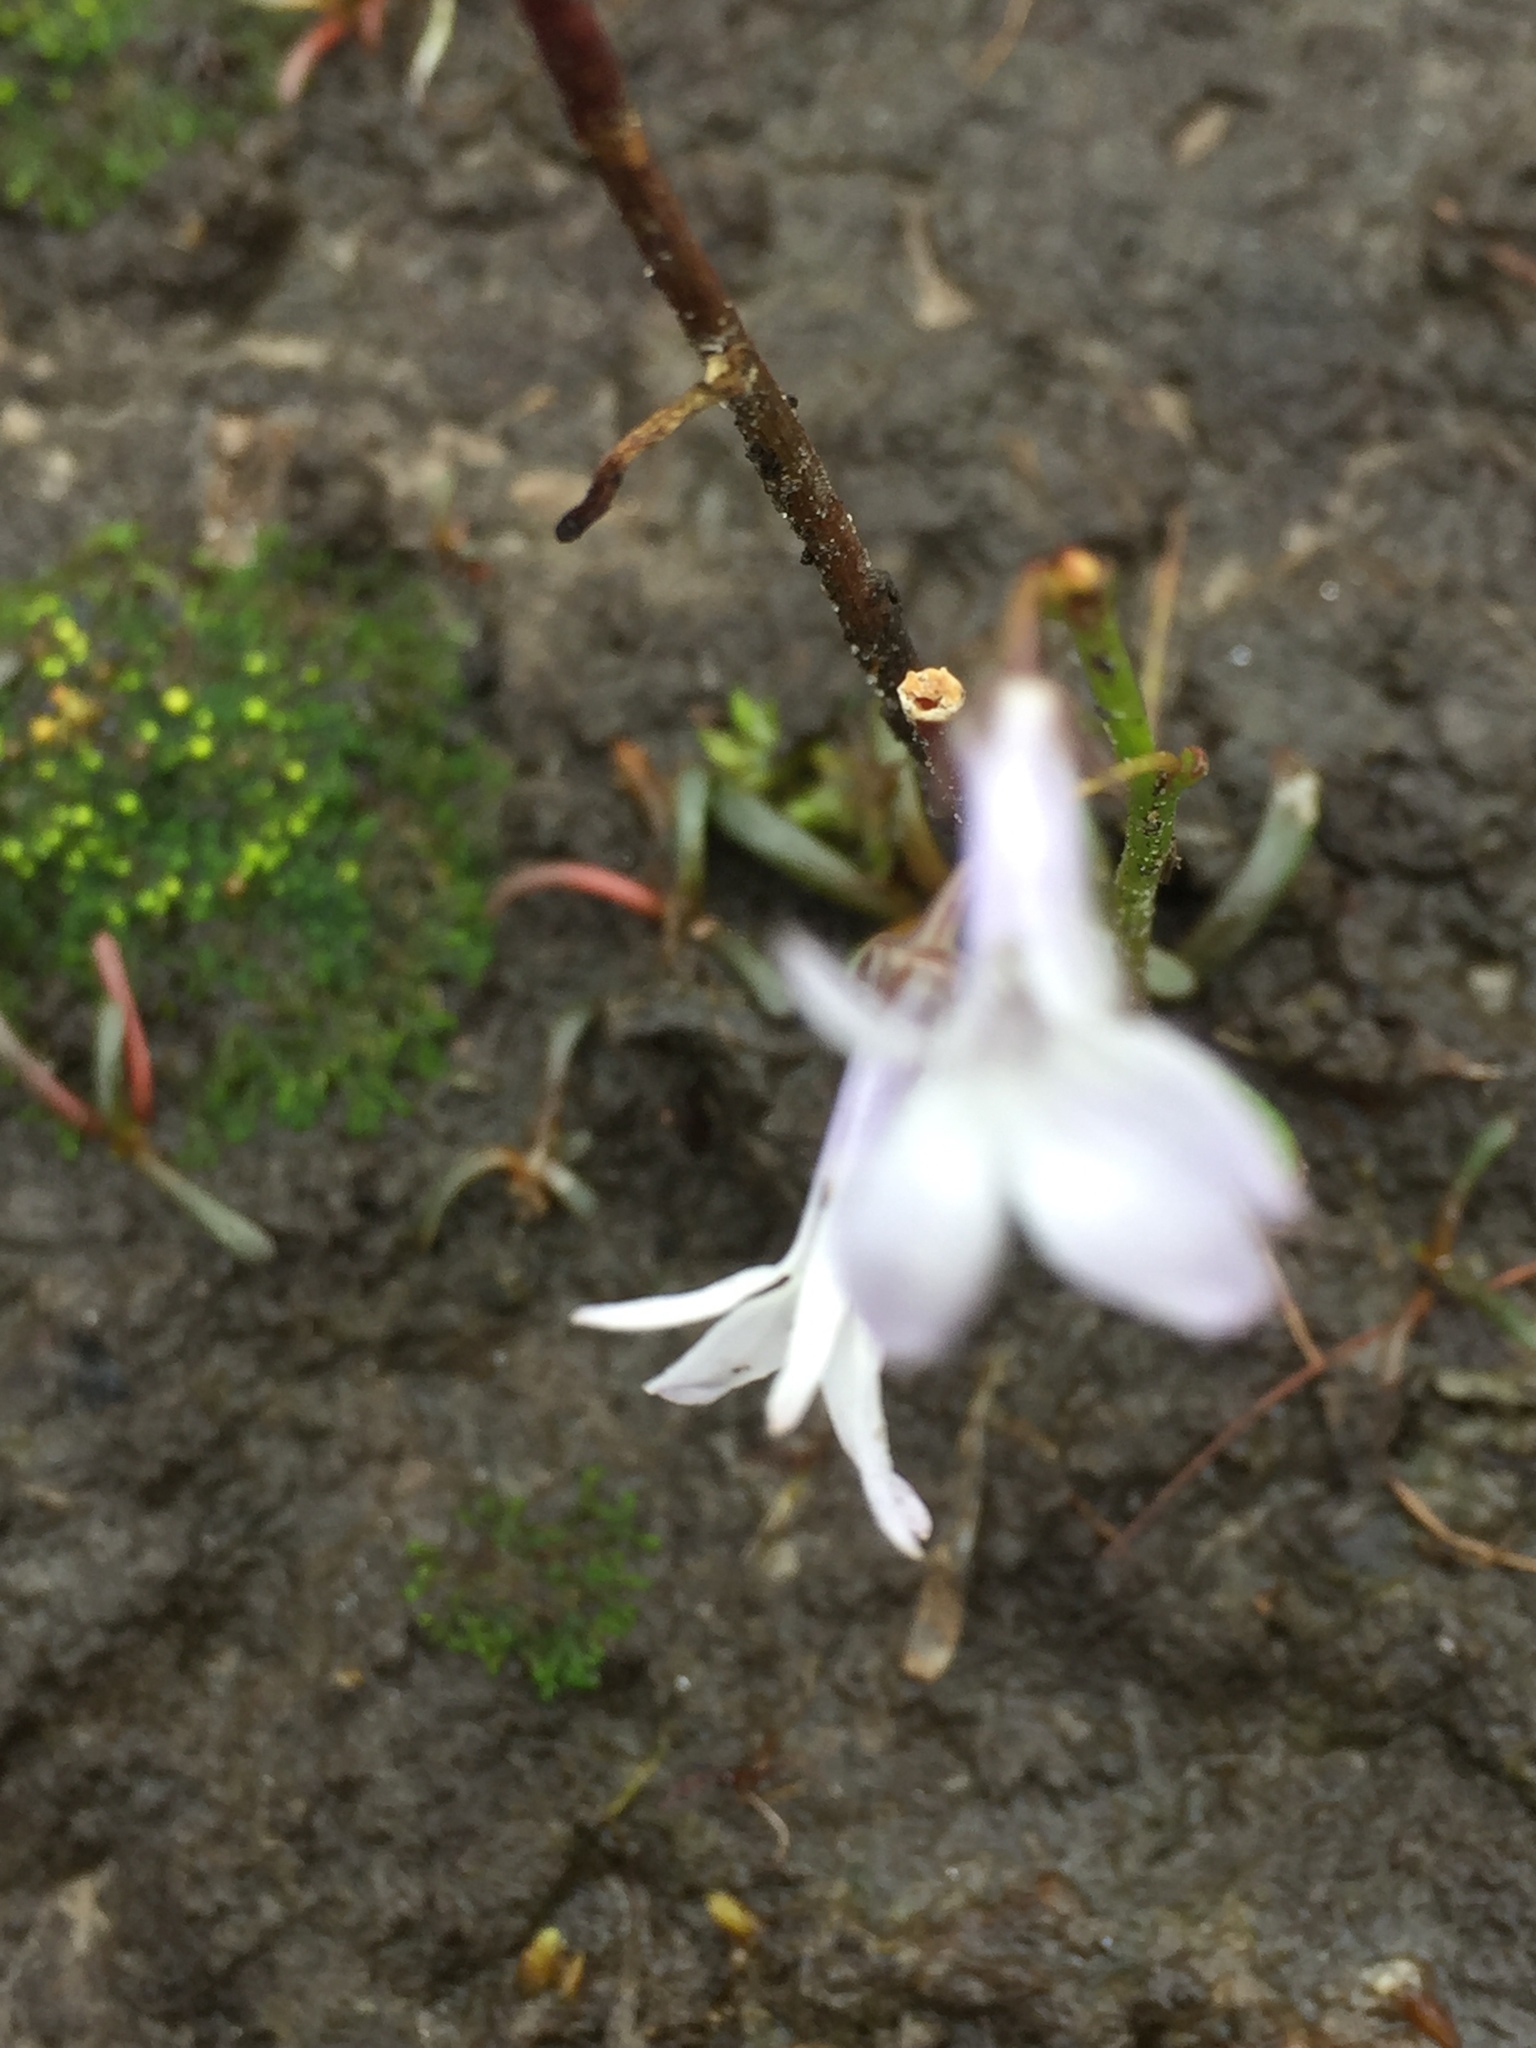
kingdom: Plantae
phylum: Tracheophyta
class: Magnoliopsida
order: Asterales
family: Campanulaceae
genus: Lobelia
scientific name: Lobelia dortmanna
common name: Water lobelia
